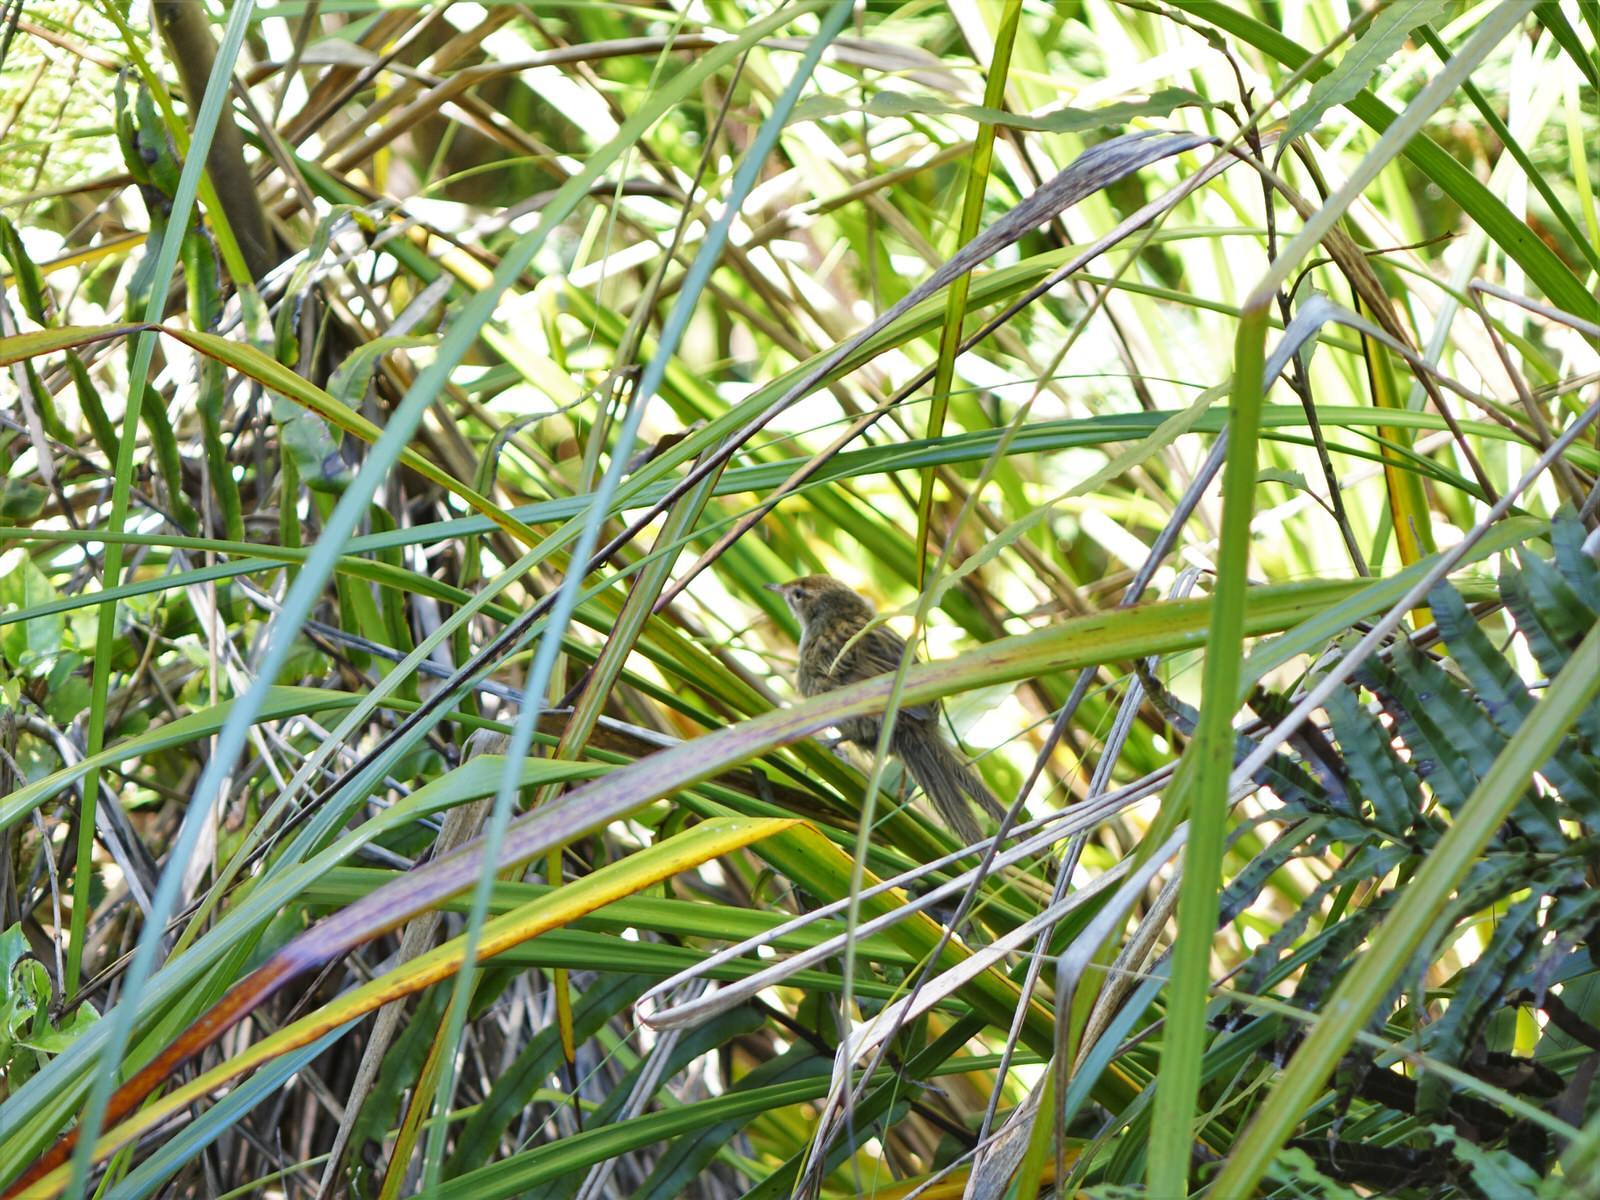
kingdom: Animalia
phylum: Chordata
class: Aves
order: Passeriformes
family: Locustellidae
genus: Megalurus
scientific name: Megalurus punctatus
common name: New zealand fernbird
